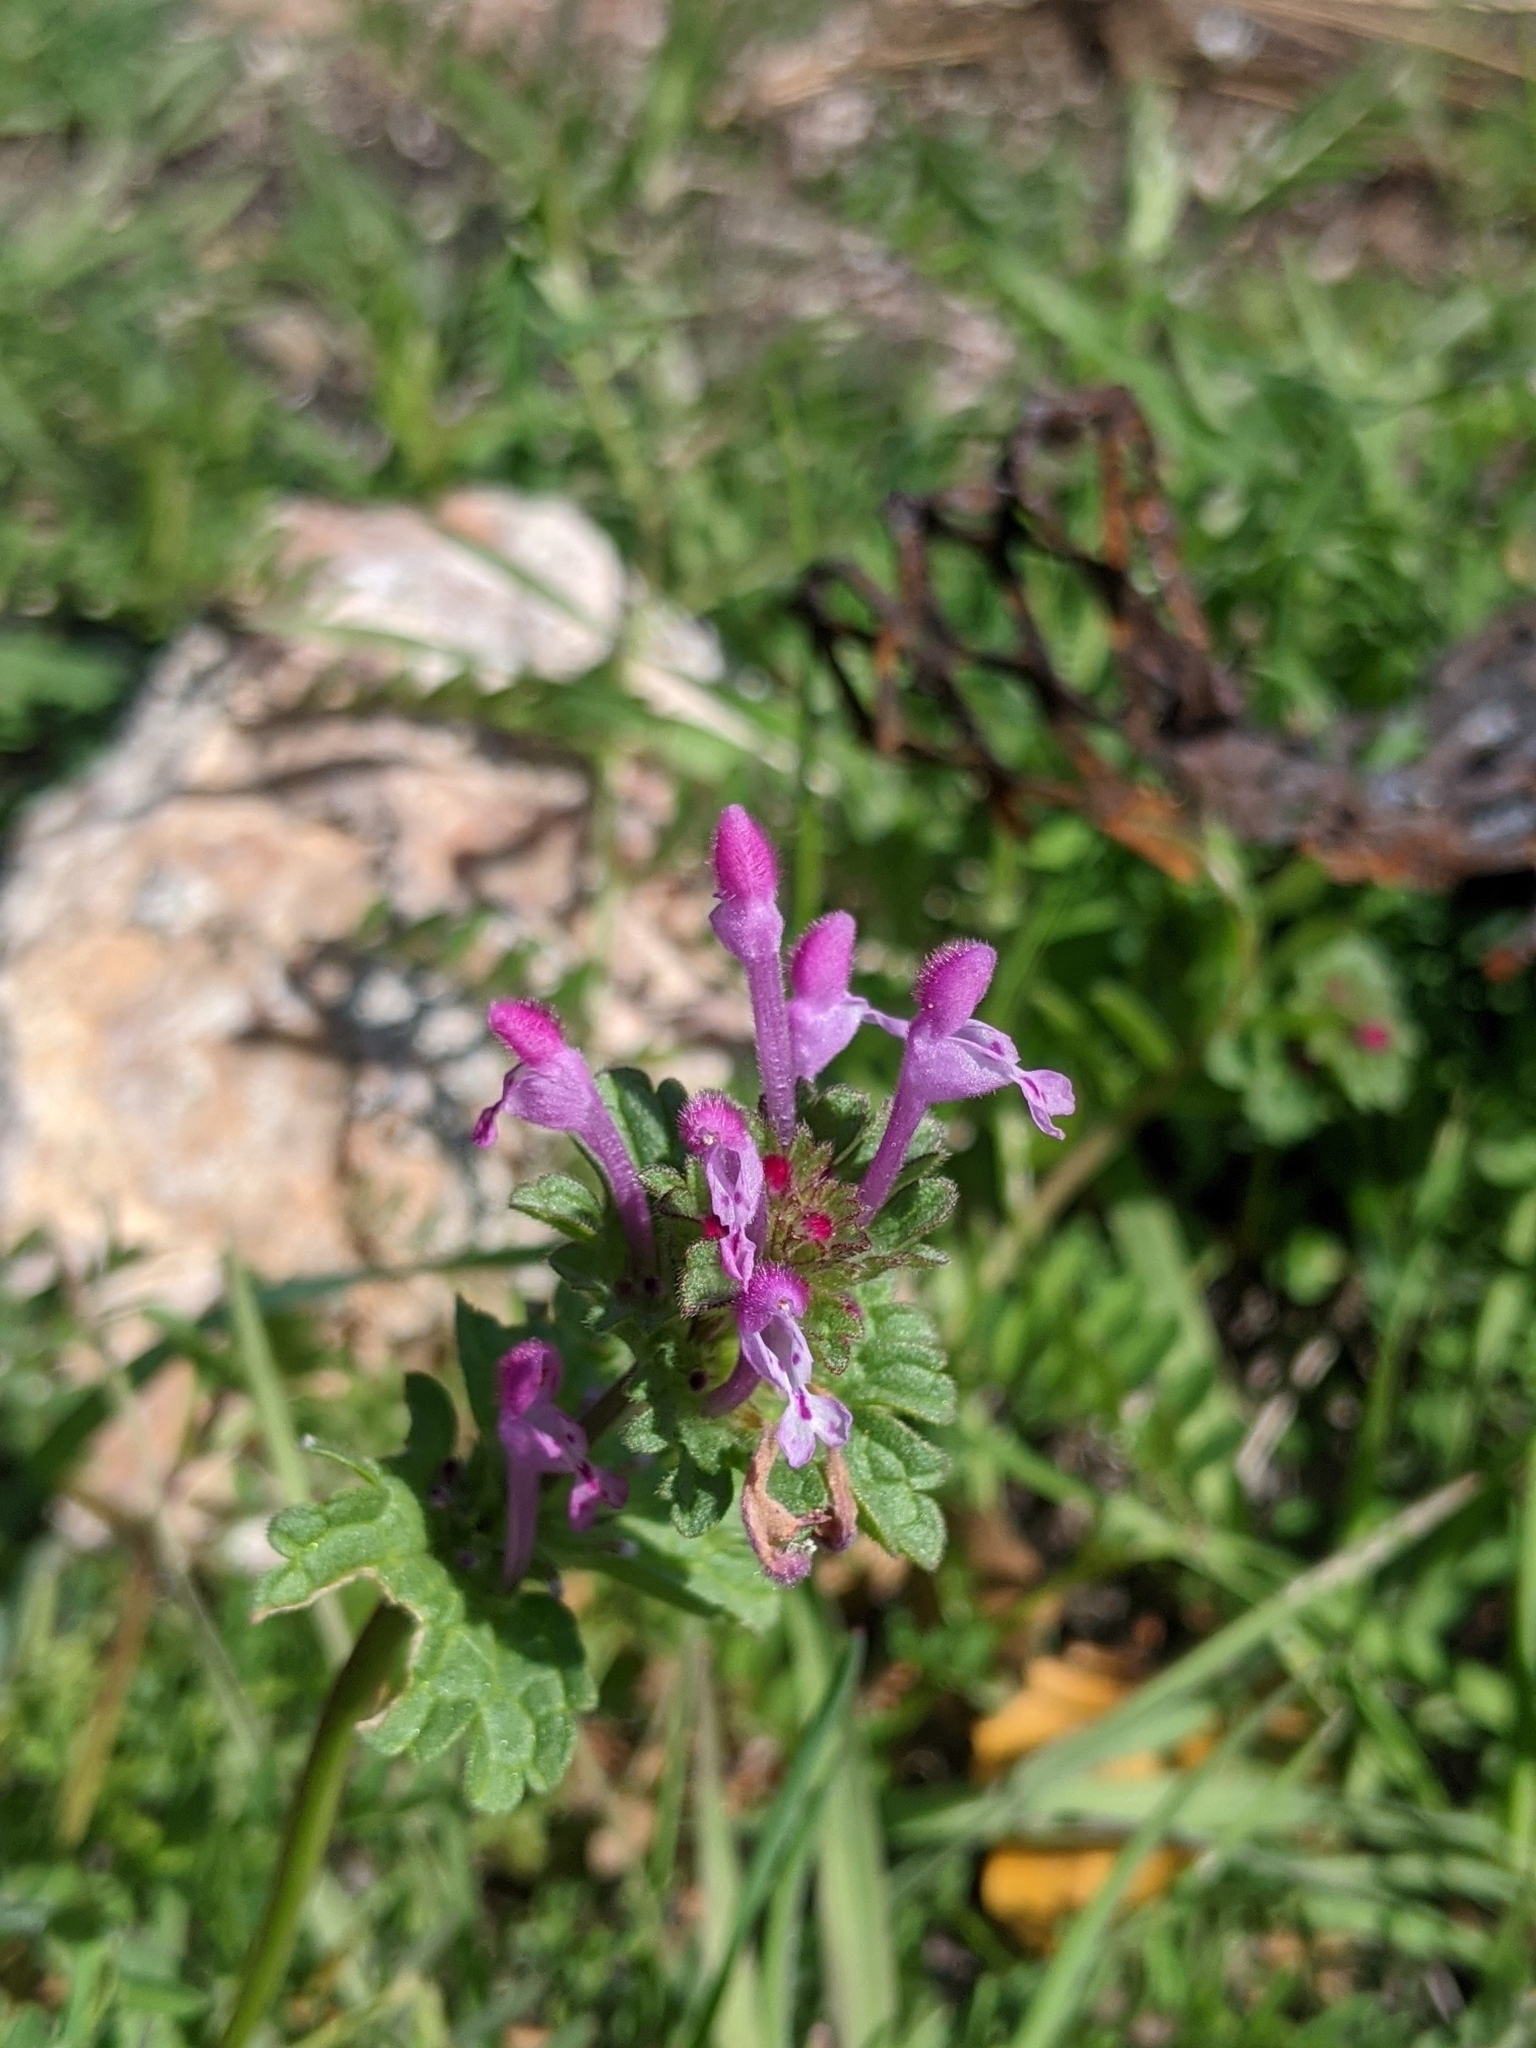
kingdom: Plantae
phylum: Tracheophyta
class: Magnoliopsida
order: Lamiales
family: Lamiaceae
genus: Lamium
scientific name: Lamium amplexicaule
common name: Henbit dead-nettle
